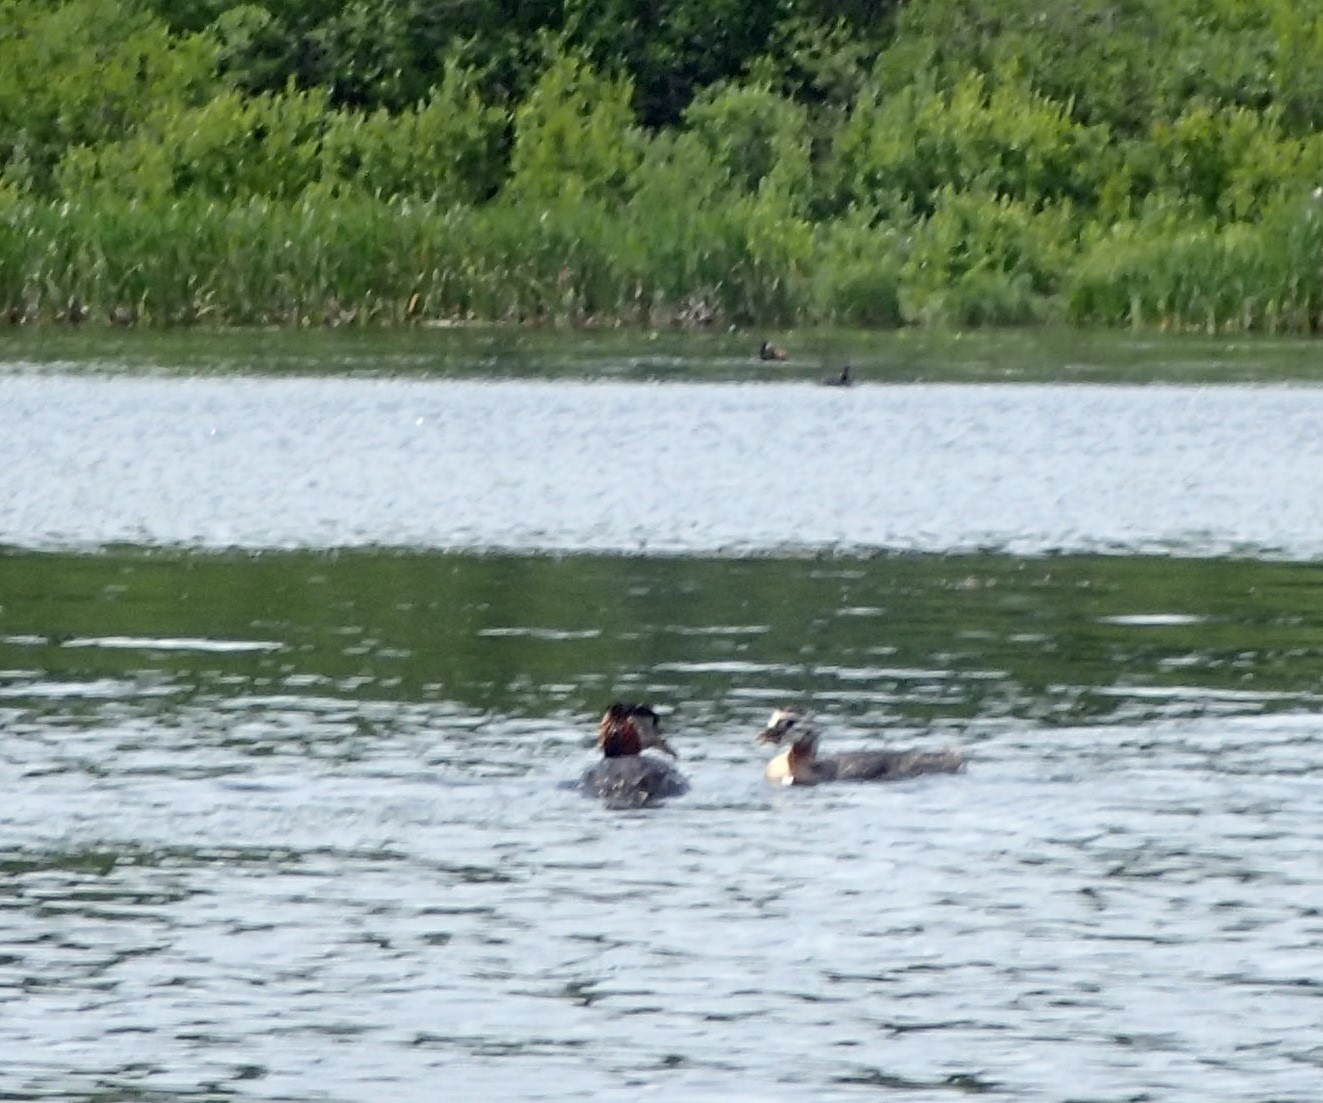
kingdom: Animalia
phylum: Chordata
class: Aves
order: Podicipediformes
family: Podicipedidae
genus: Podiceps
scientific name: Podiceps grisegena
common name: Red-necked grebe
